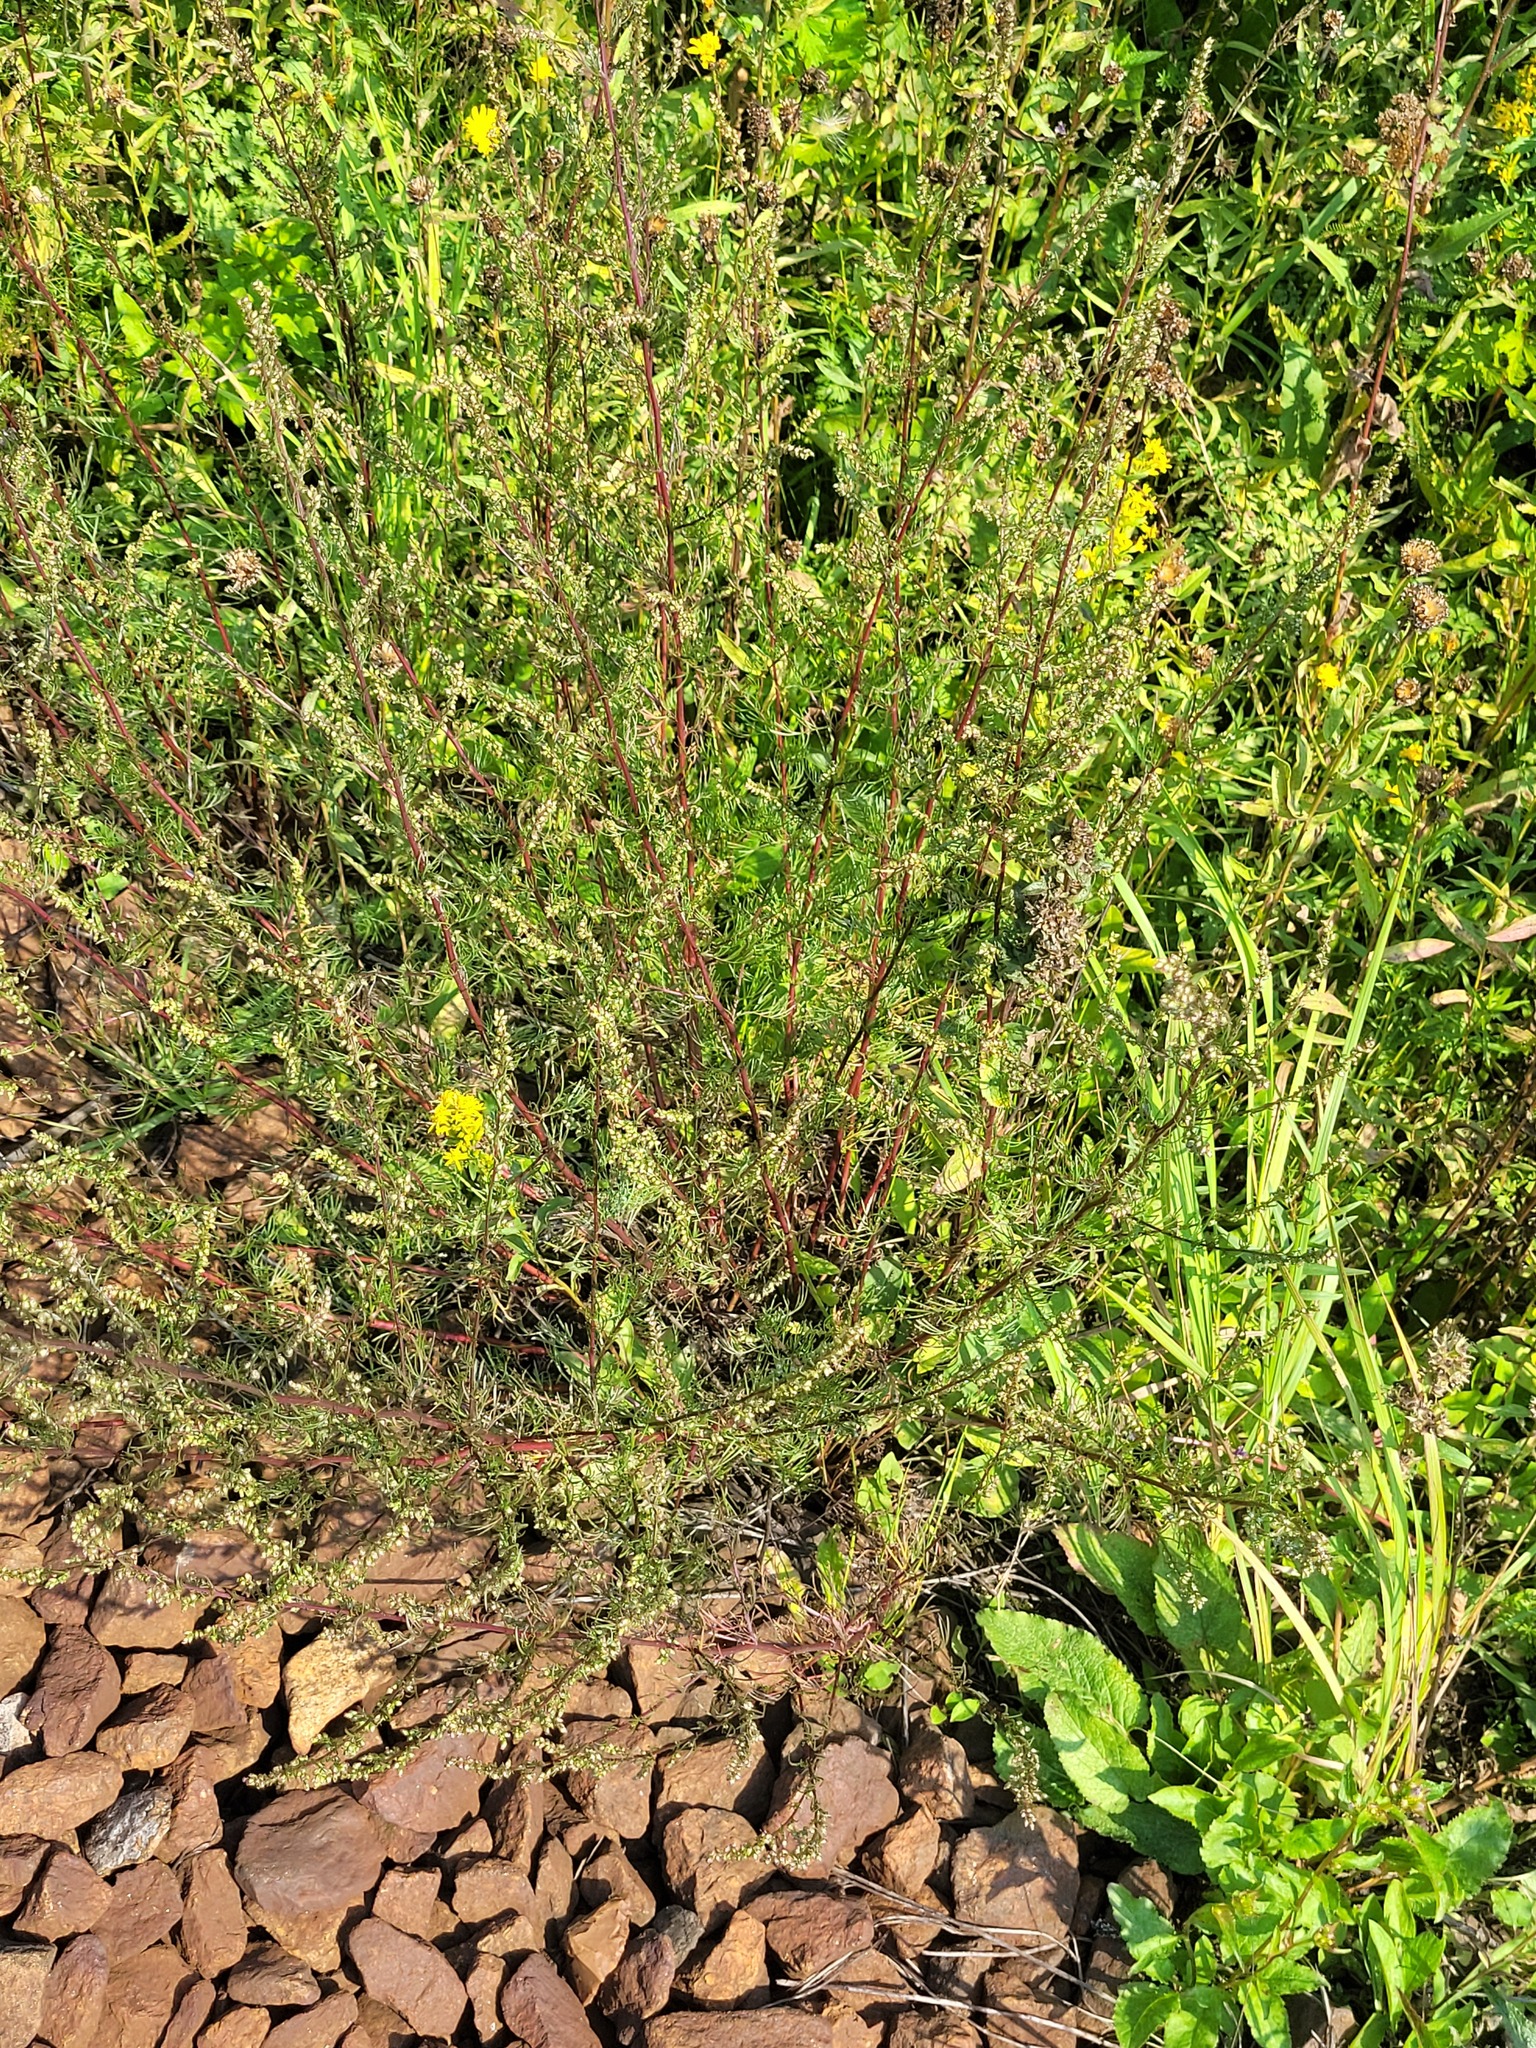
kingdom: Plantae
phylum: Tracheophyta
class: Magnoliopsida
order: Asterales
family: Asteraceae
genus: Artemisia
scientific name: Artemisia campestris
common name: Field wormwood
